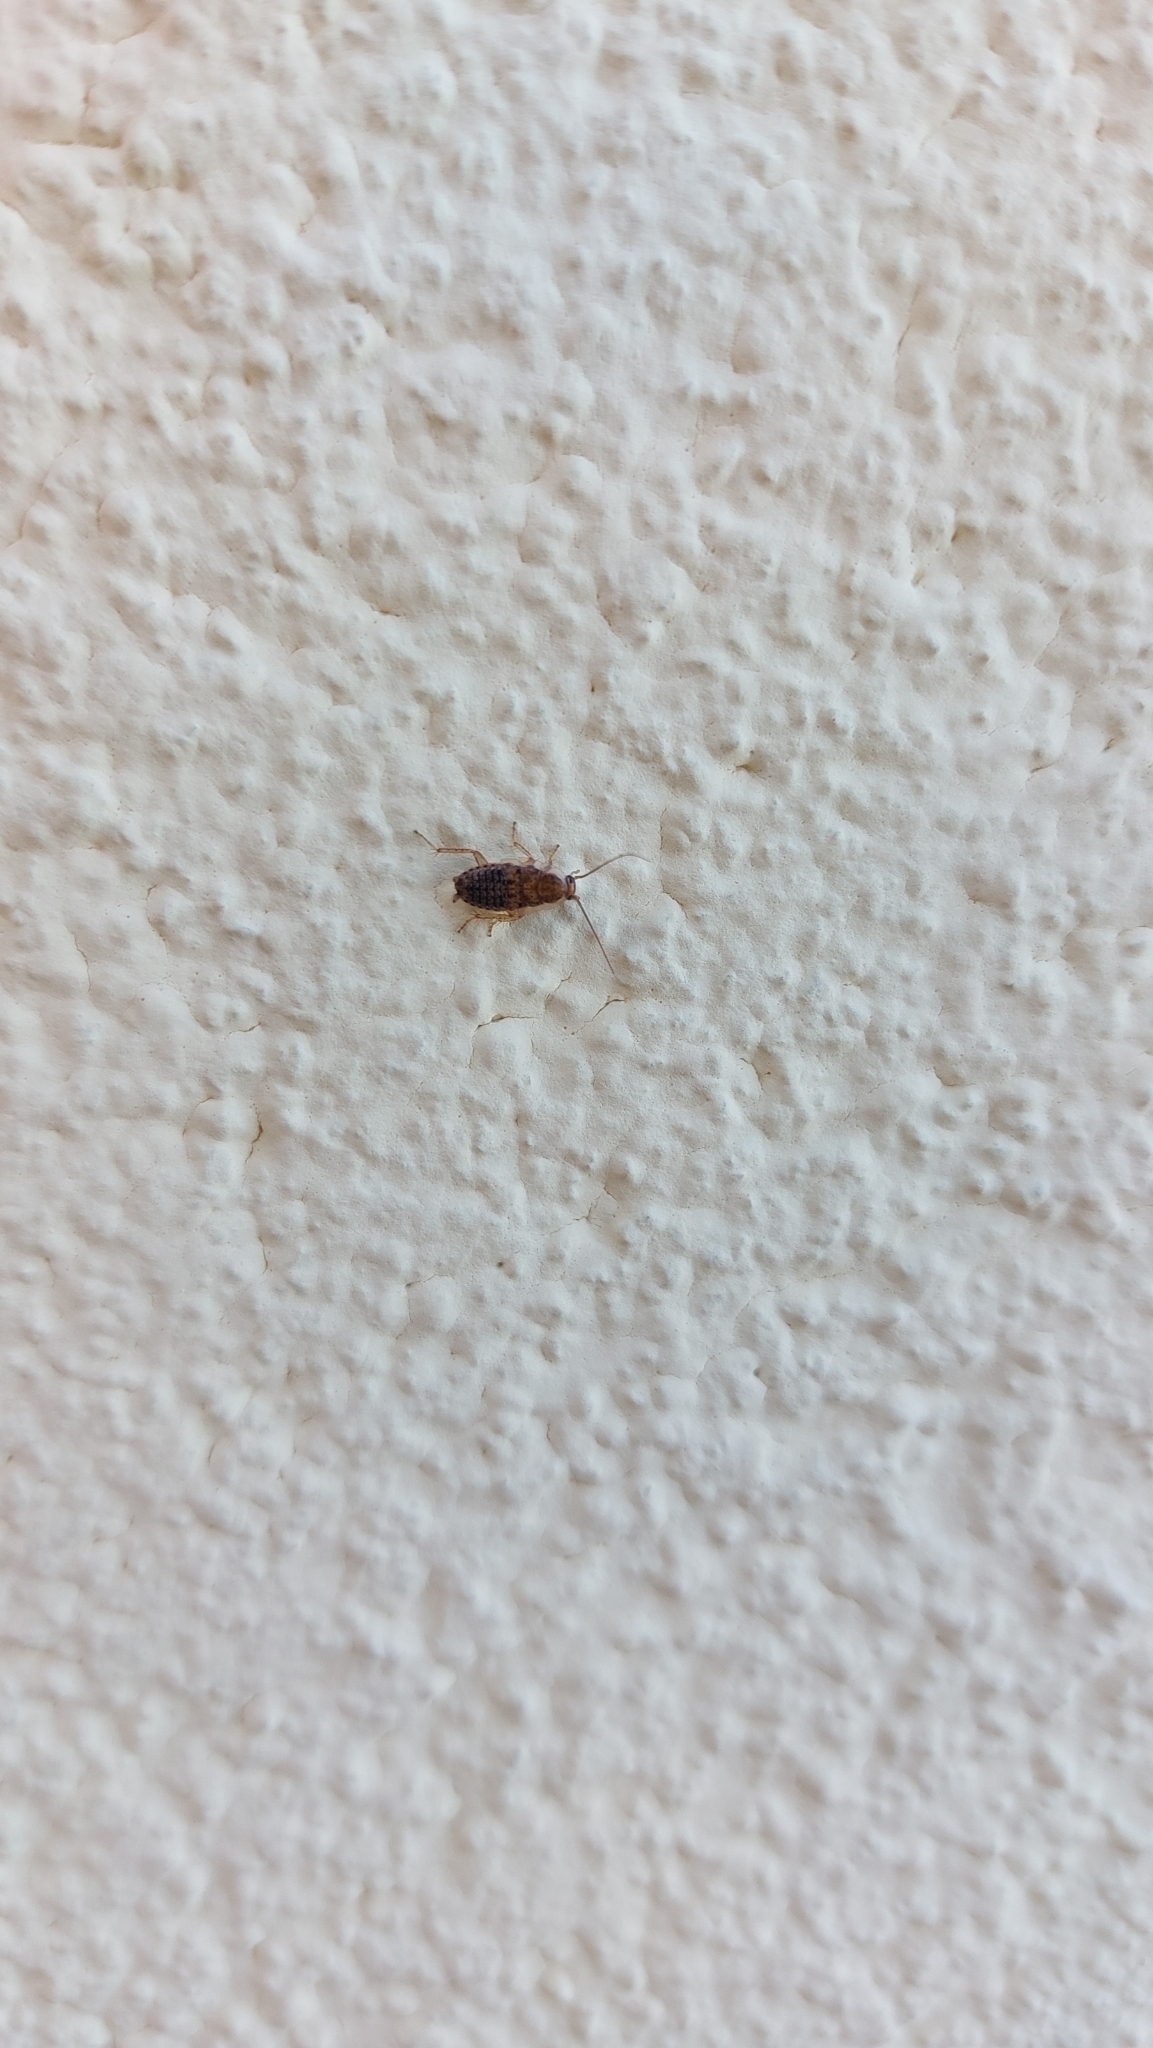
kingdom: Animalia
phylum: Arthropoda
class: Insecta
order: Blattodea
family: Ectobiidae
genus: Ectobius
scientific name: Ectobius vittiventris
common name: Garden cockroach
